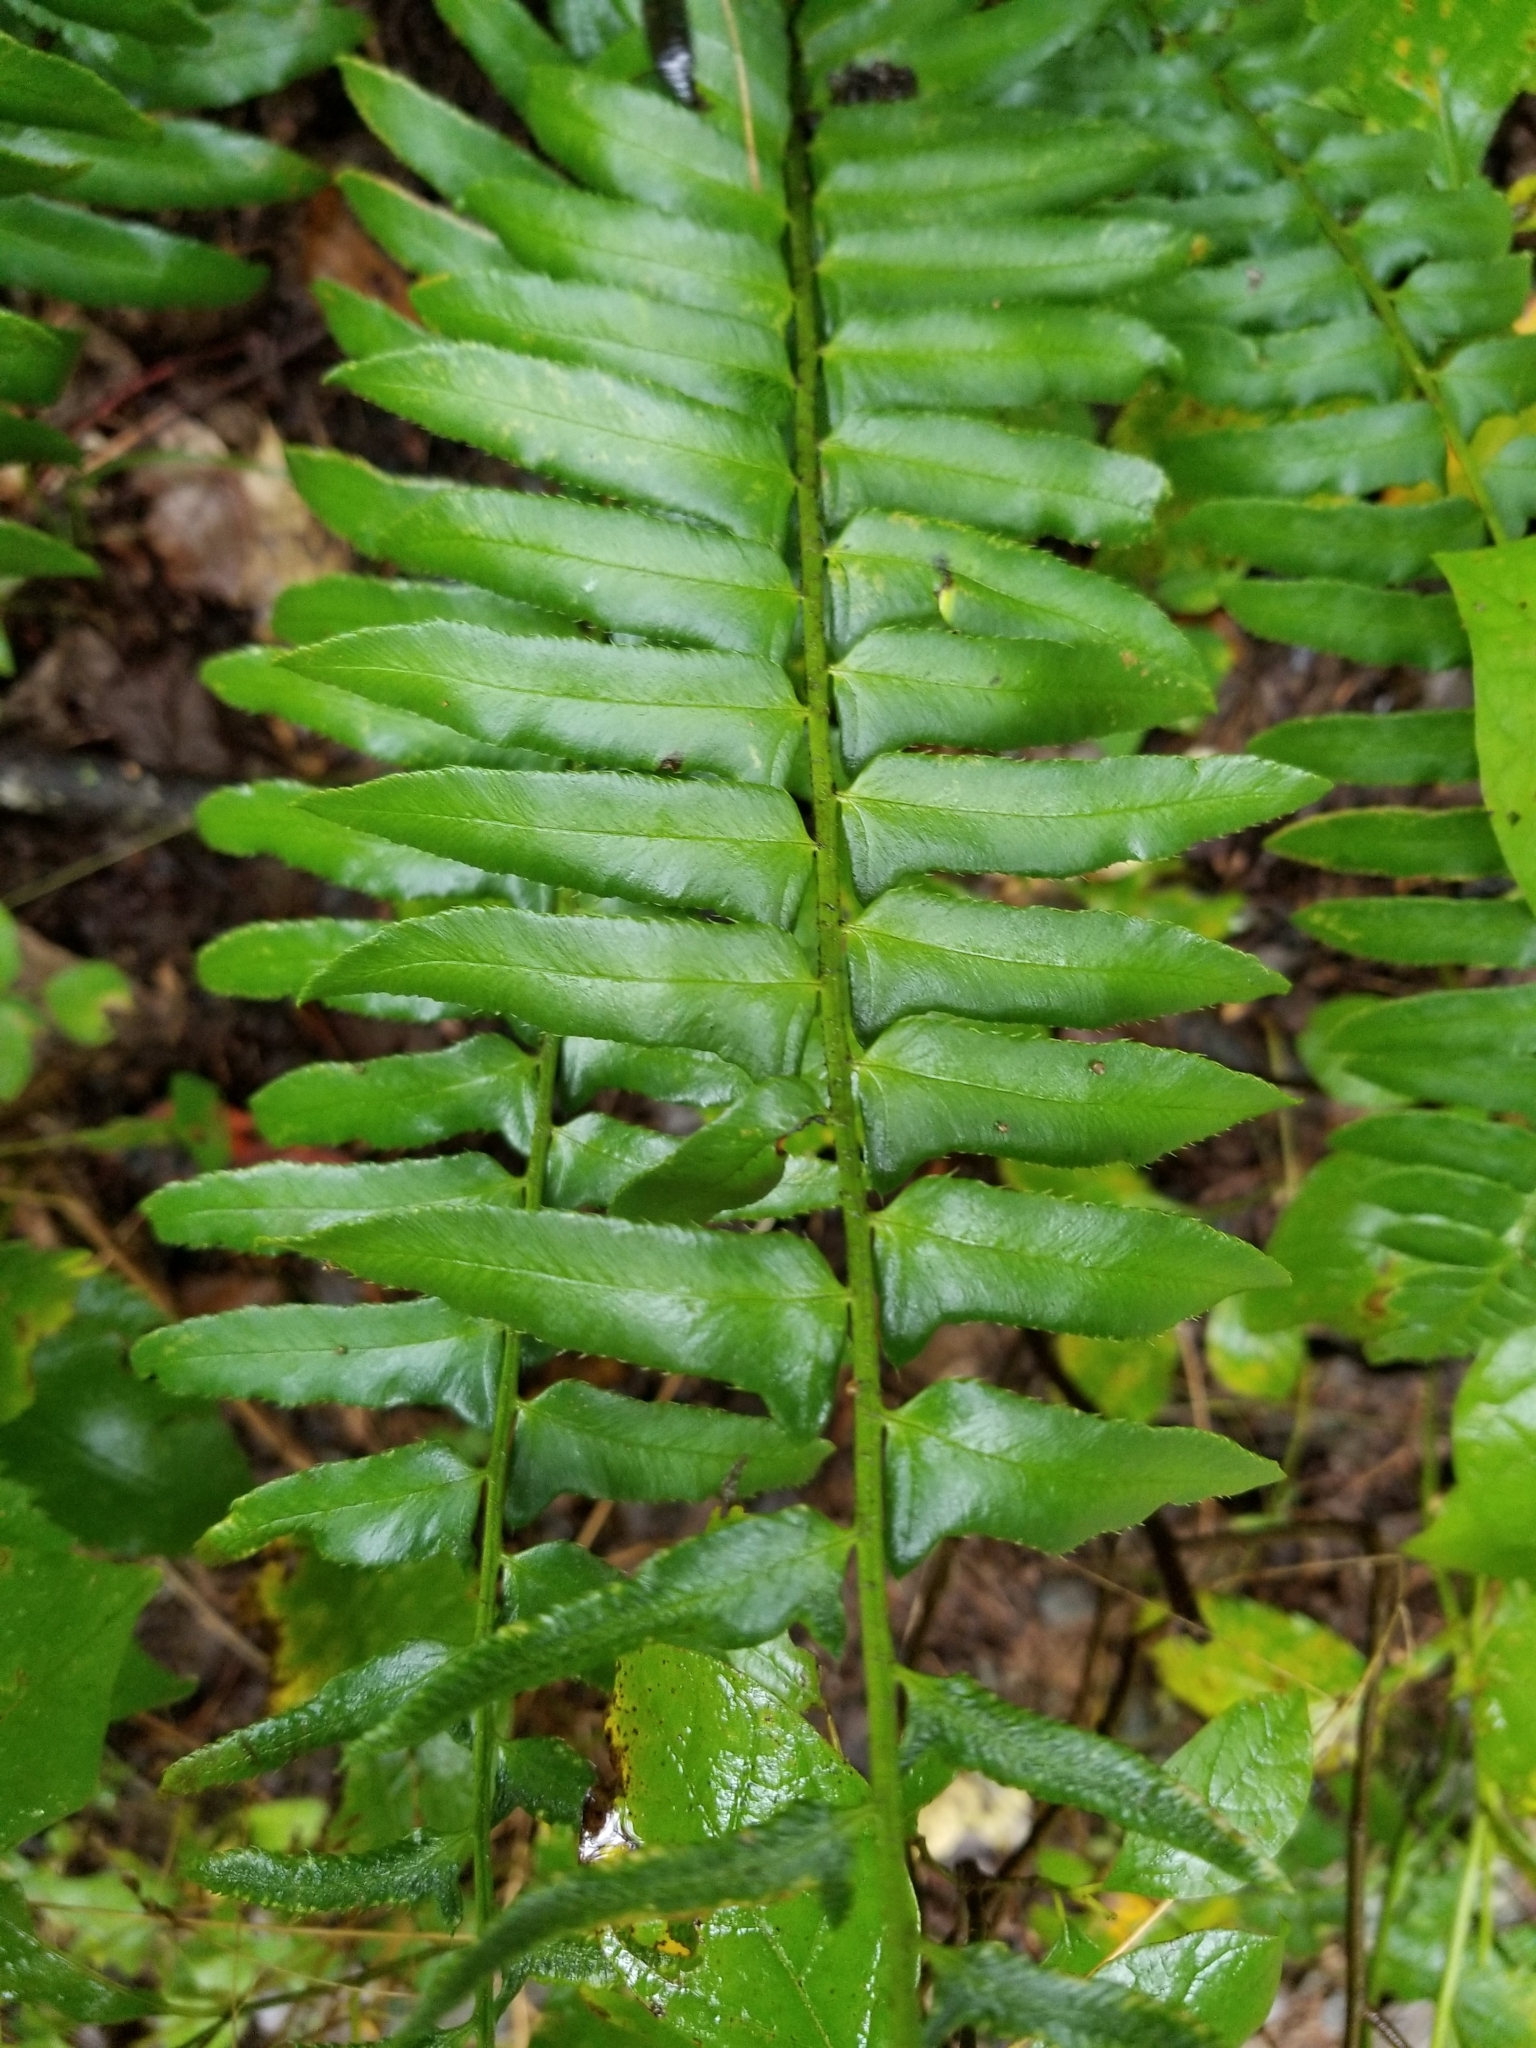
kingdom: Plantae
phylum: Tracheophyta
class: Polypodiopsida
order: Polypodiales
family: Dryopteridaceae
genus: Polystichum
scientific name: Polystichum acrostichoides
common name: Christmas fern
